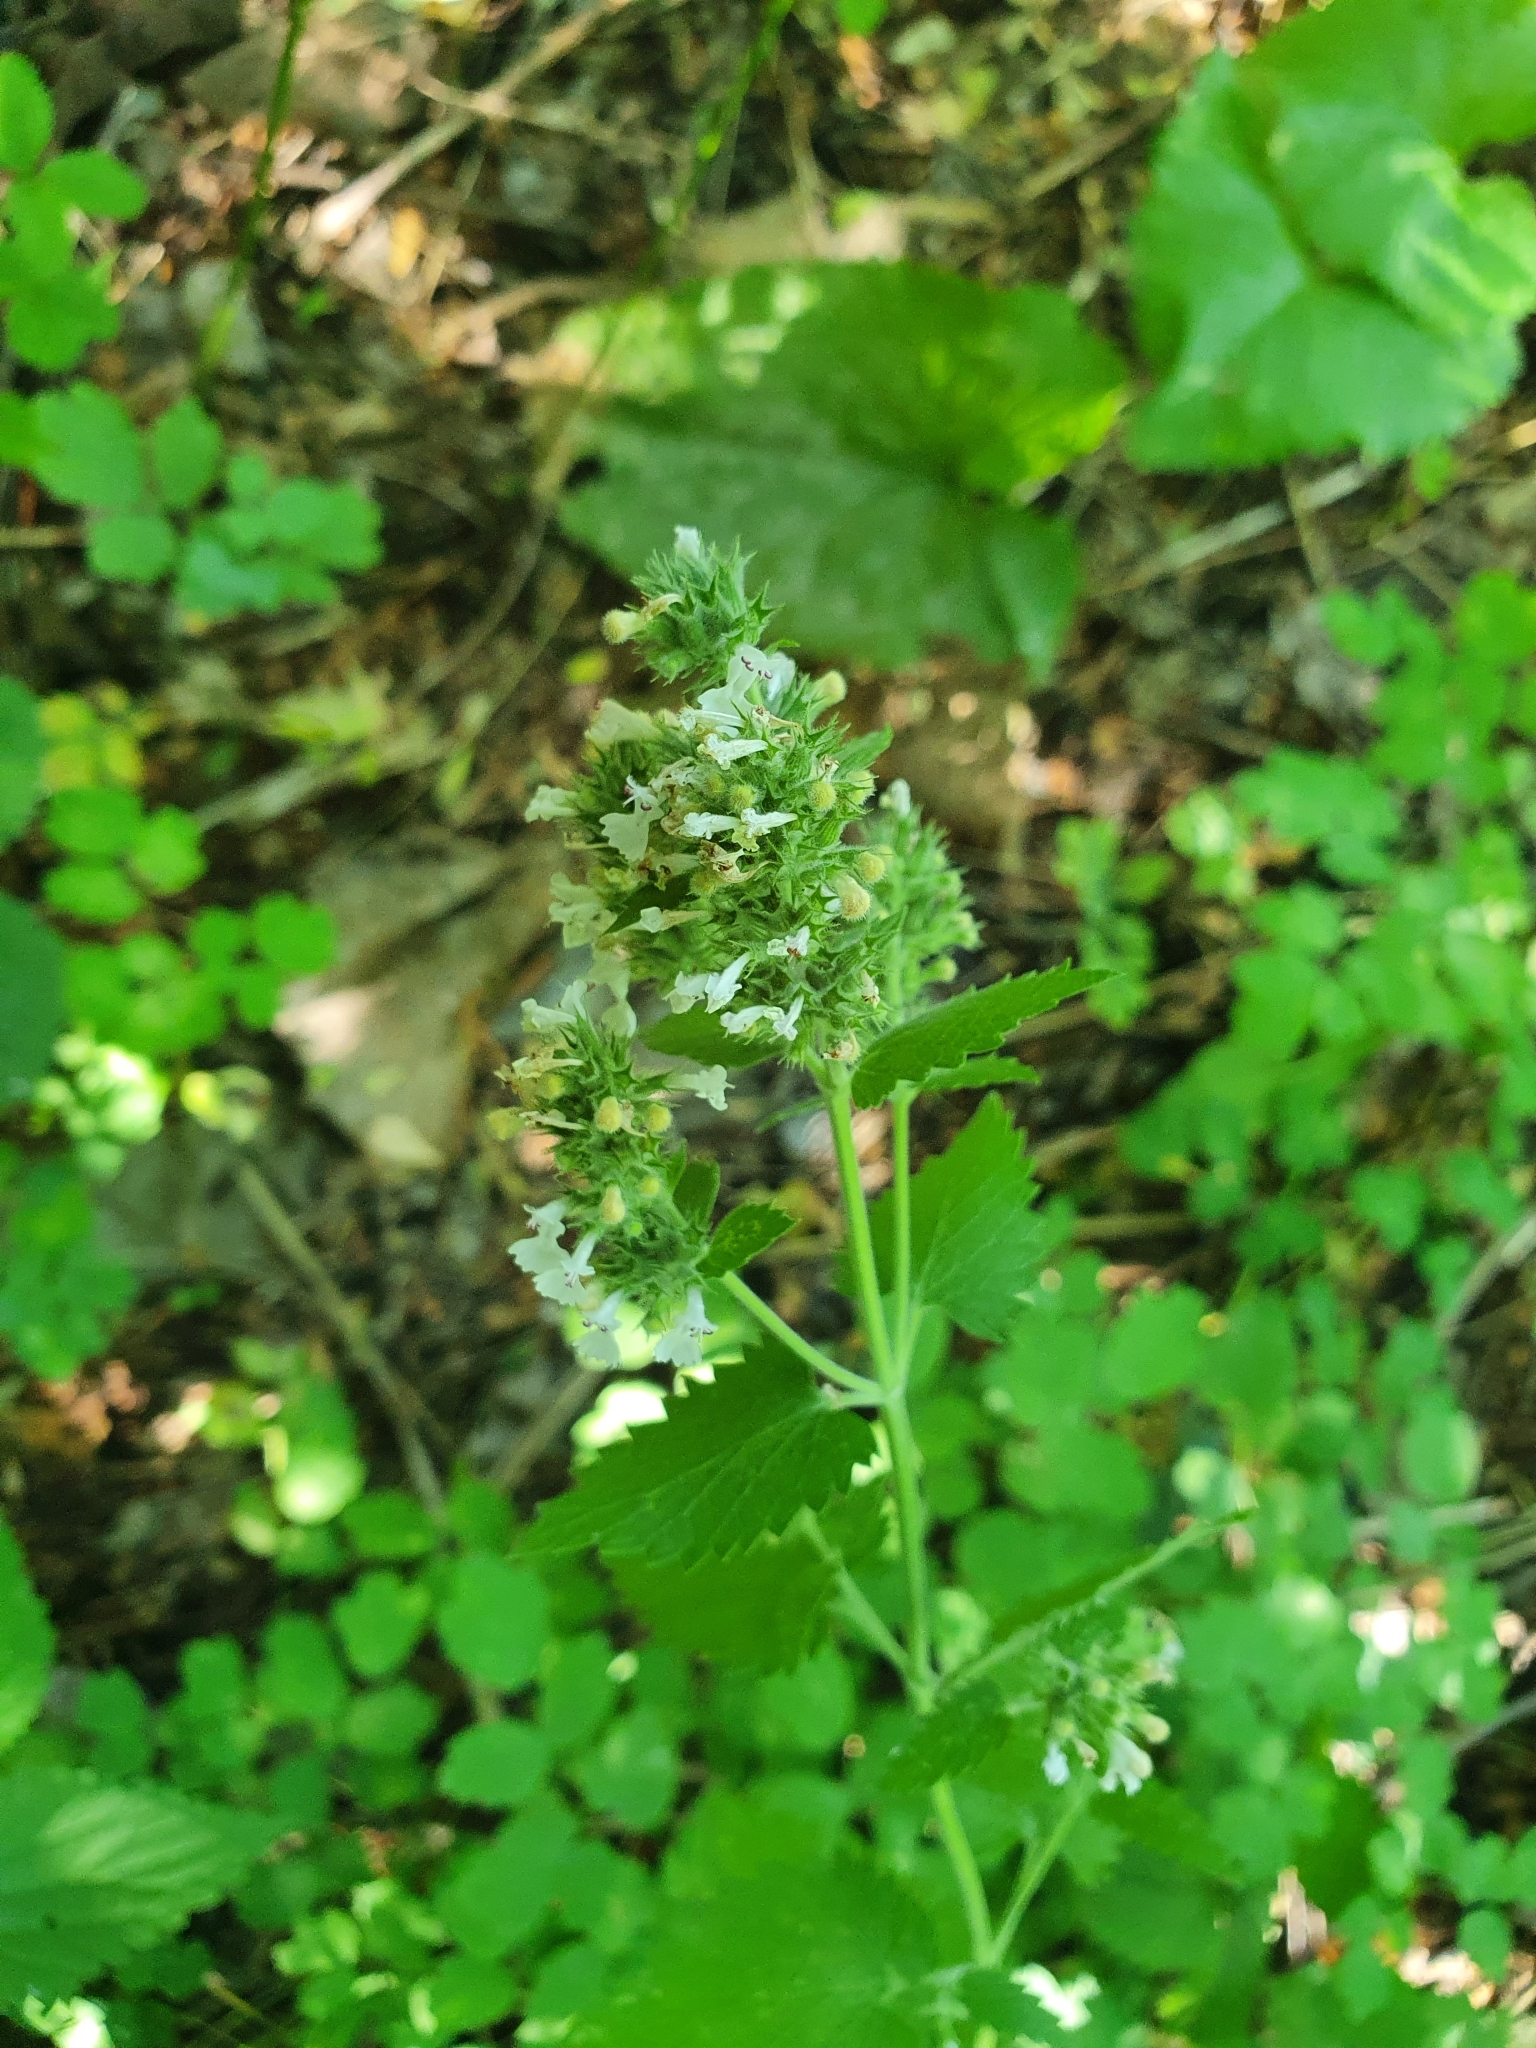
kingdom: Plantae
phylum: Tracheophyta
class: Magnoliopsida
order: Lamiales
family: Lamiaceae
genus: Nepeta
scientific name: Nepeta cataria
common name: Catnip
